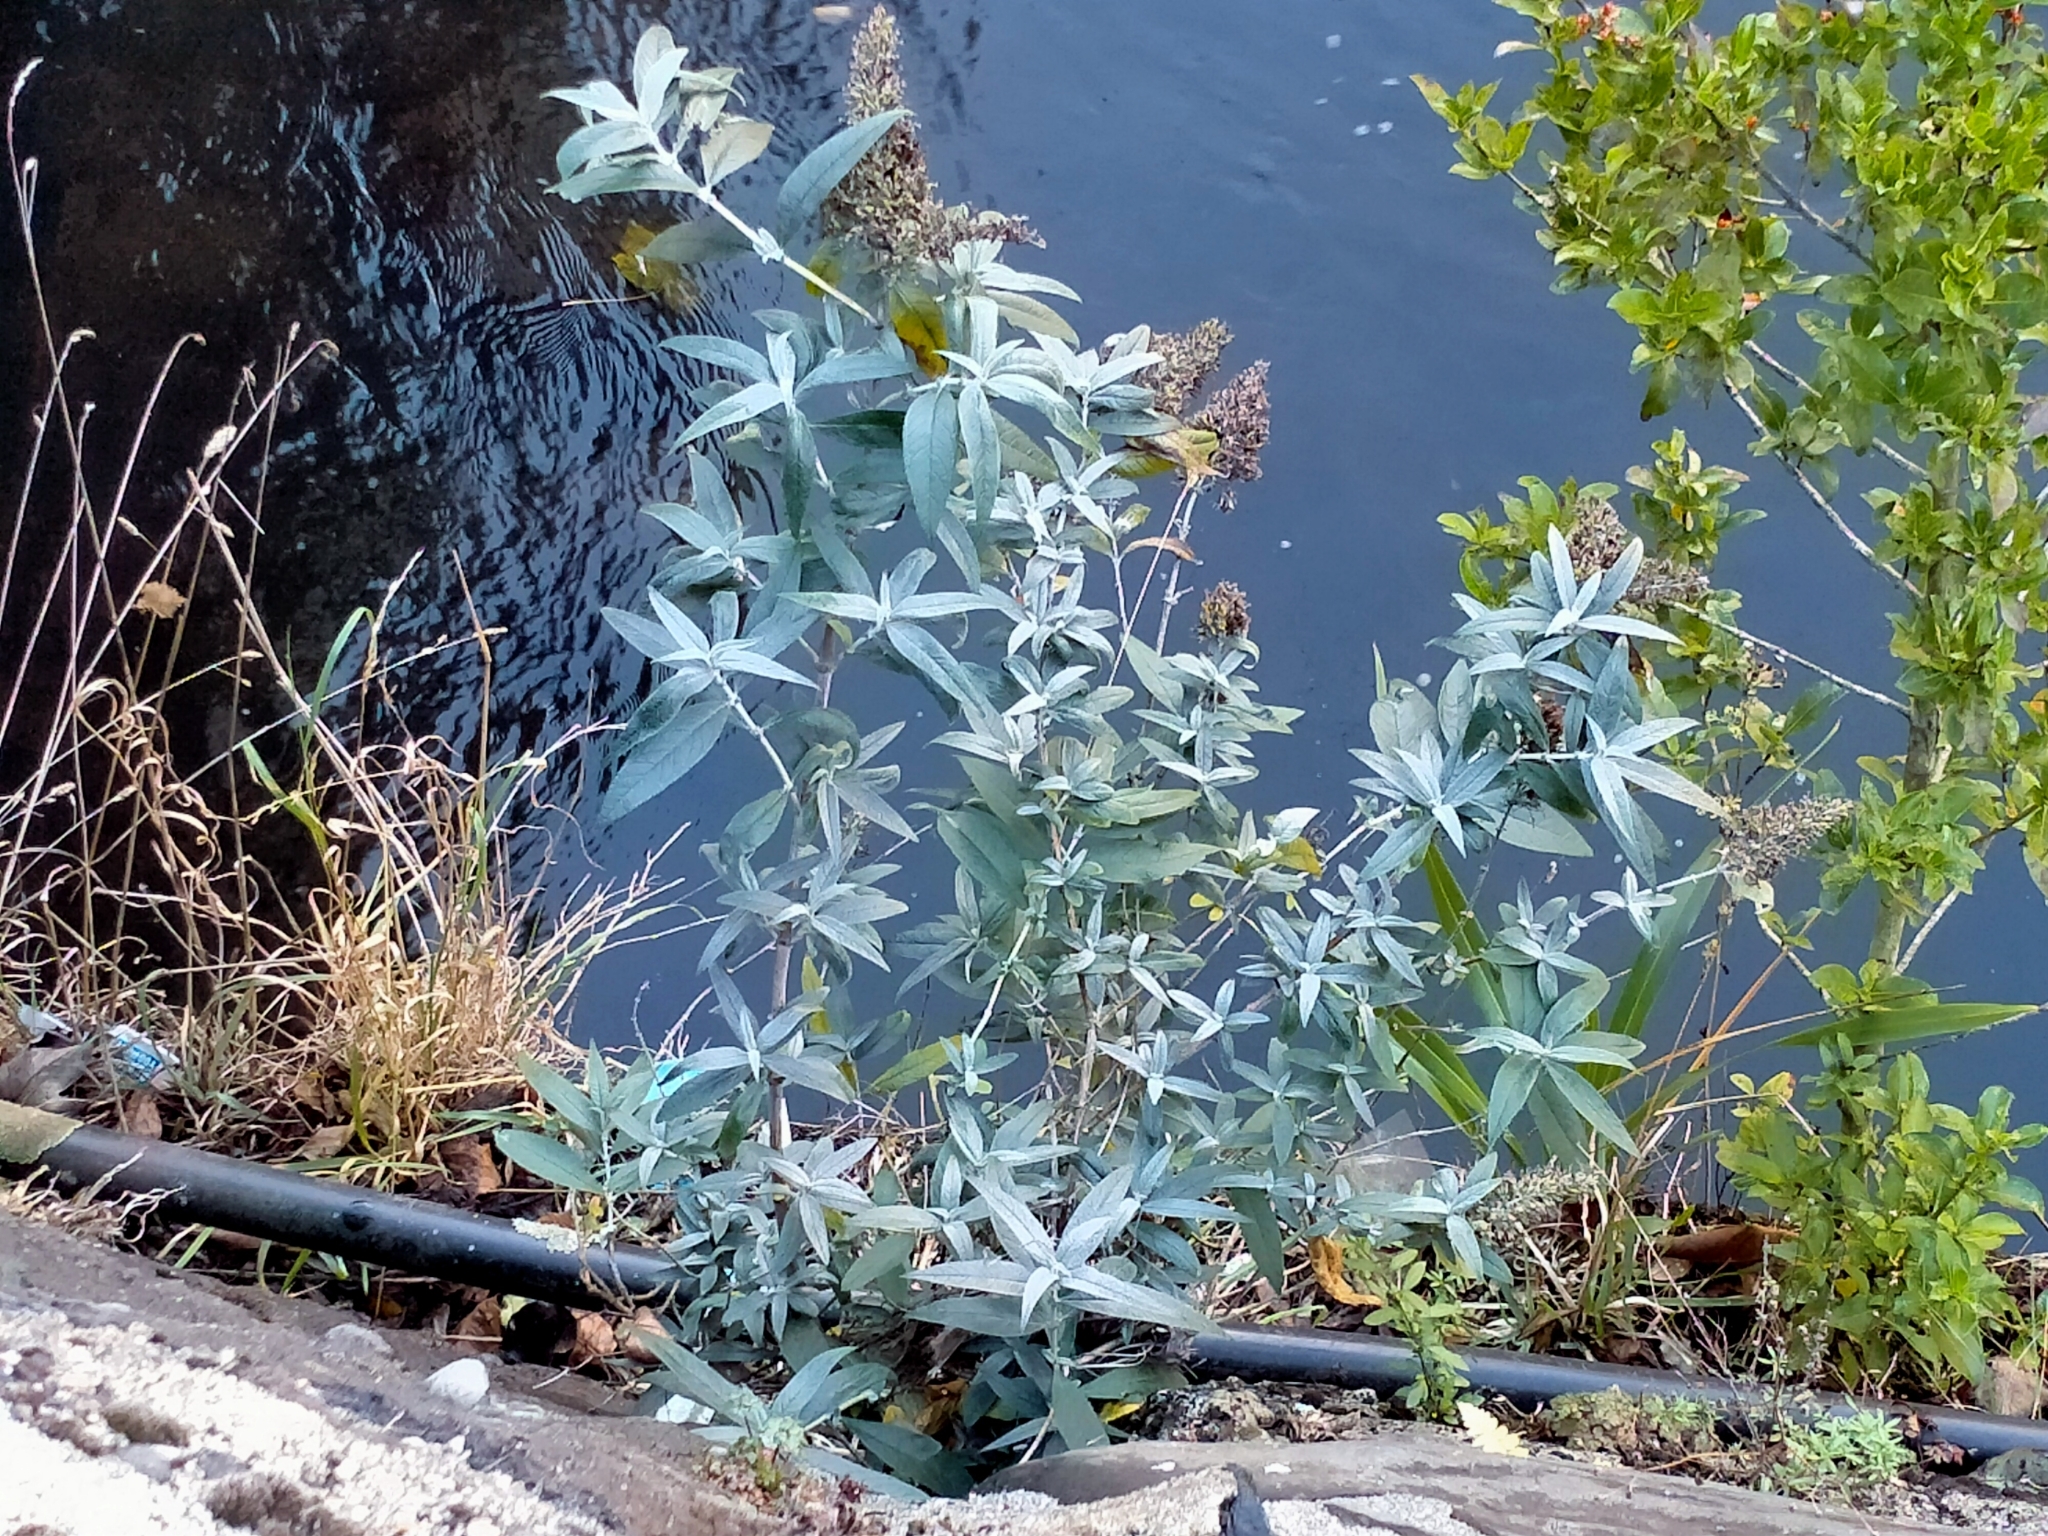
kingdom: Plantae
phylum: Tracheophyta
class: Magnoliopsida
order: Lamiales
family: Scrophulariaceae
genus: Buddleja
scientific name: Buddleja davidii
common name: Butterfly-bush
